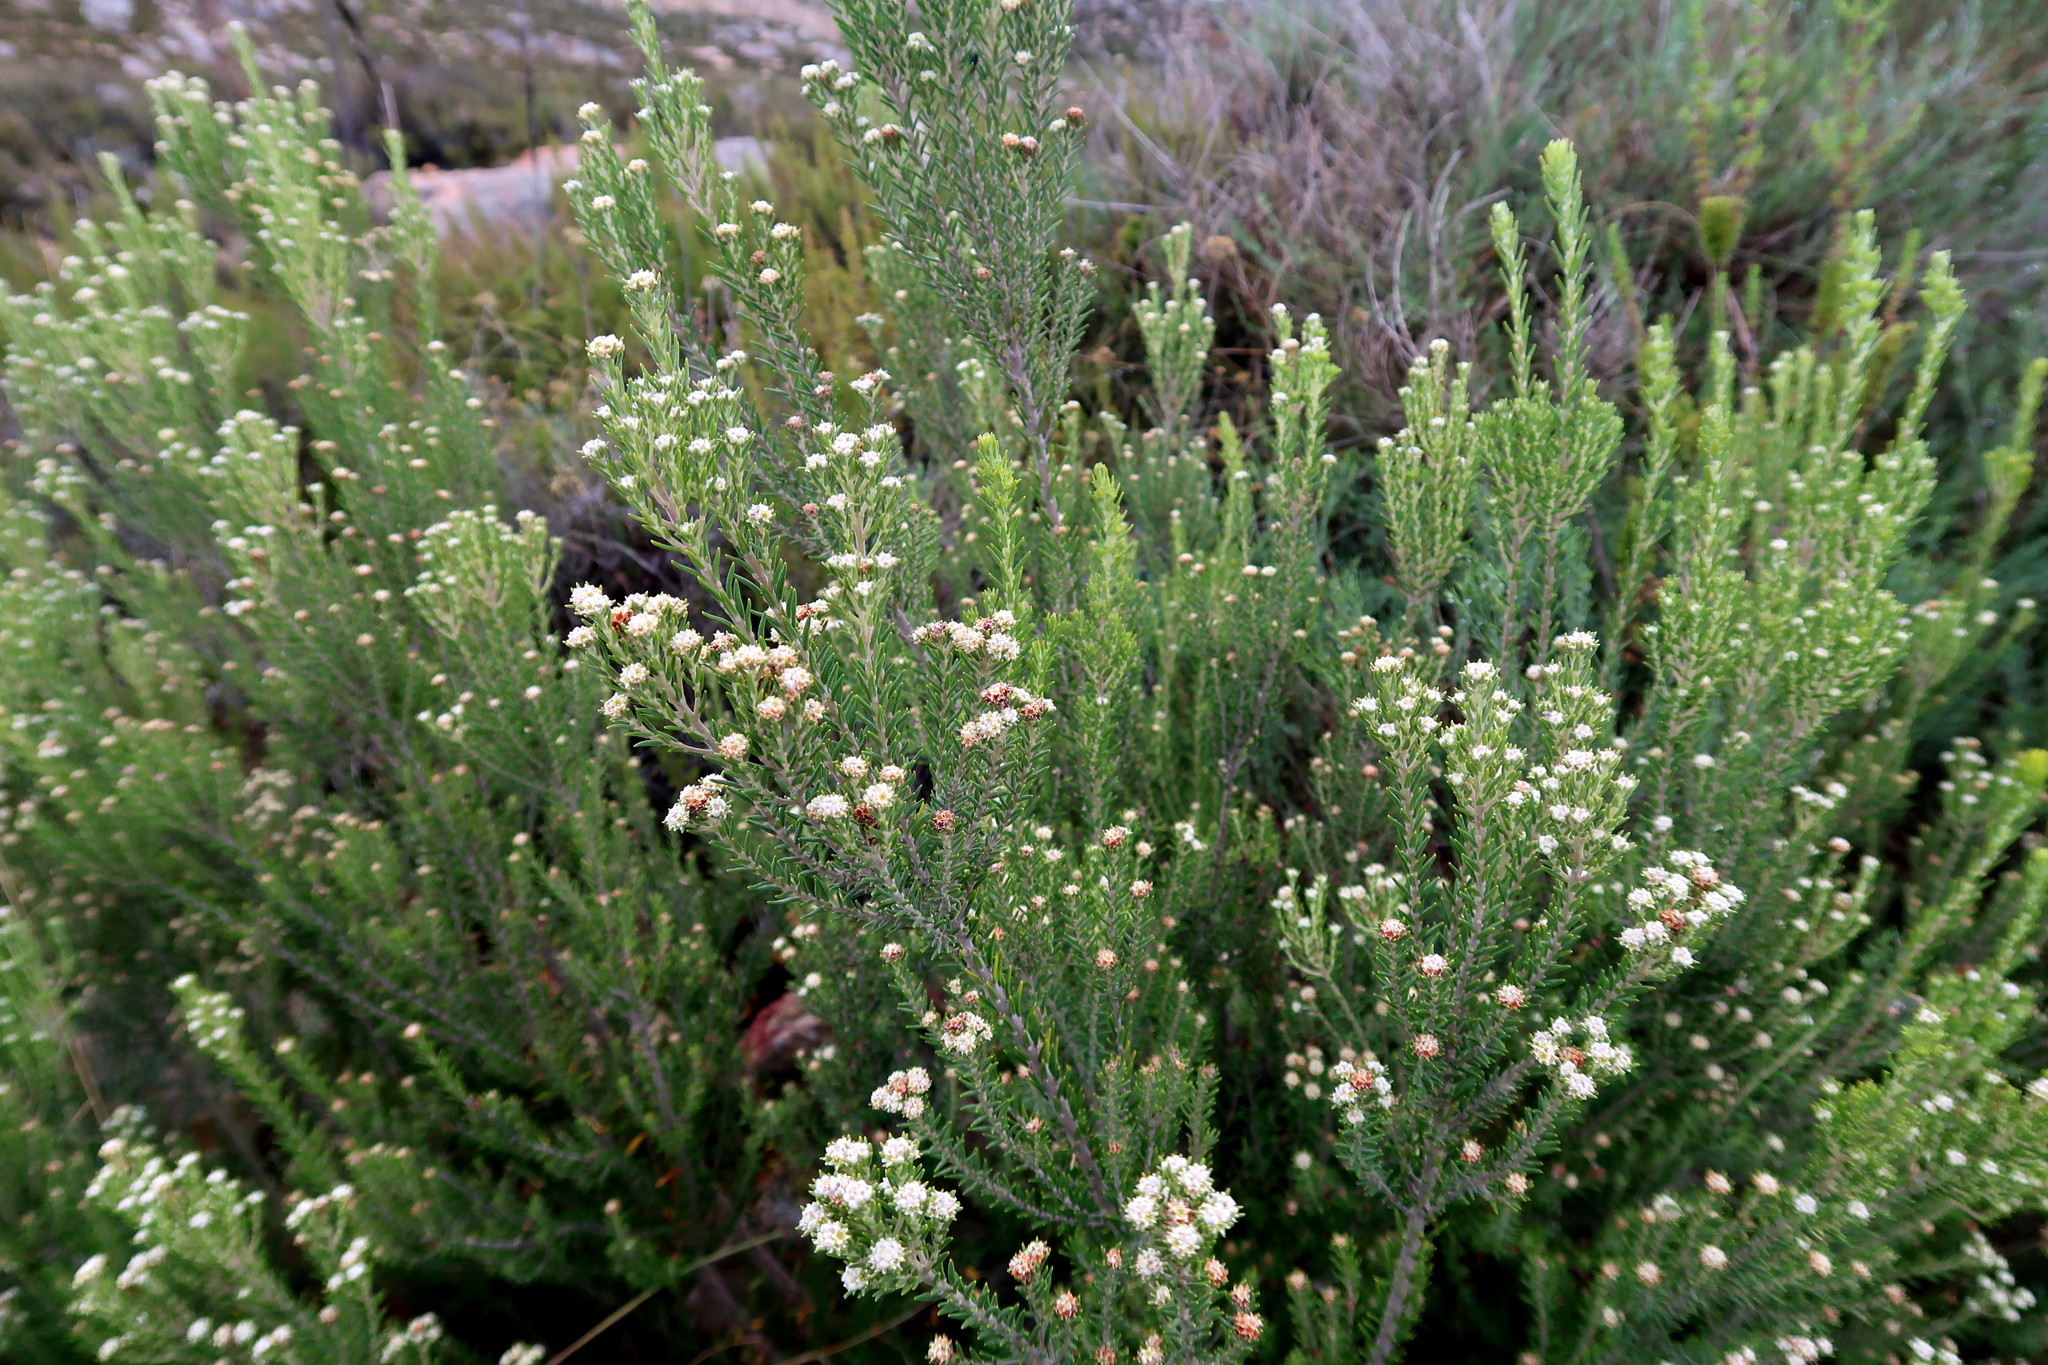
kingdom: Plantae
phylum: Tracheophyta
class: Magnoliopsida
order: Rosales
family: Rhamnaceae
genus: Phylica
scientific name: Phylica wittebergensis
